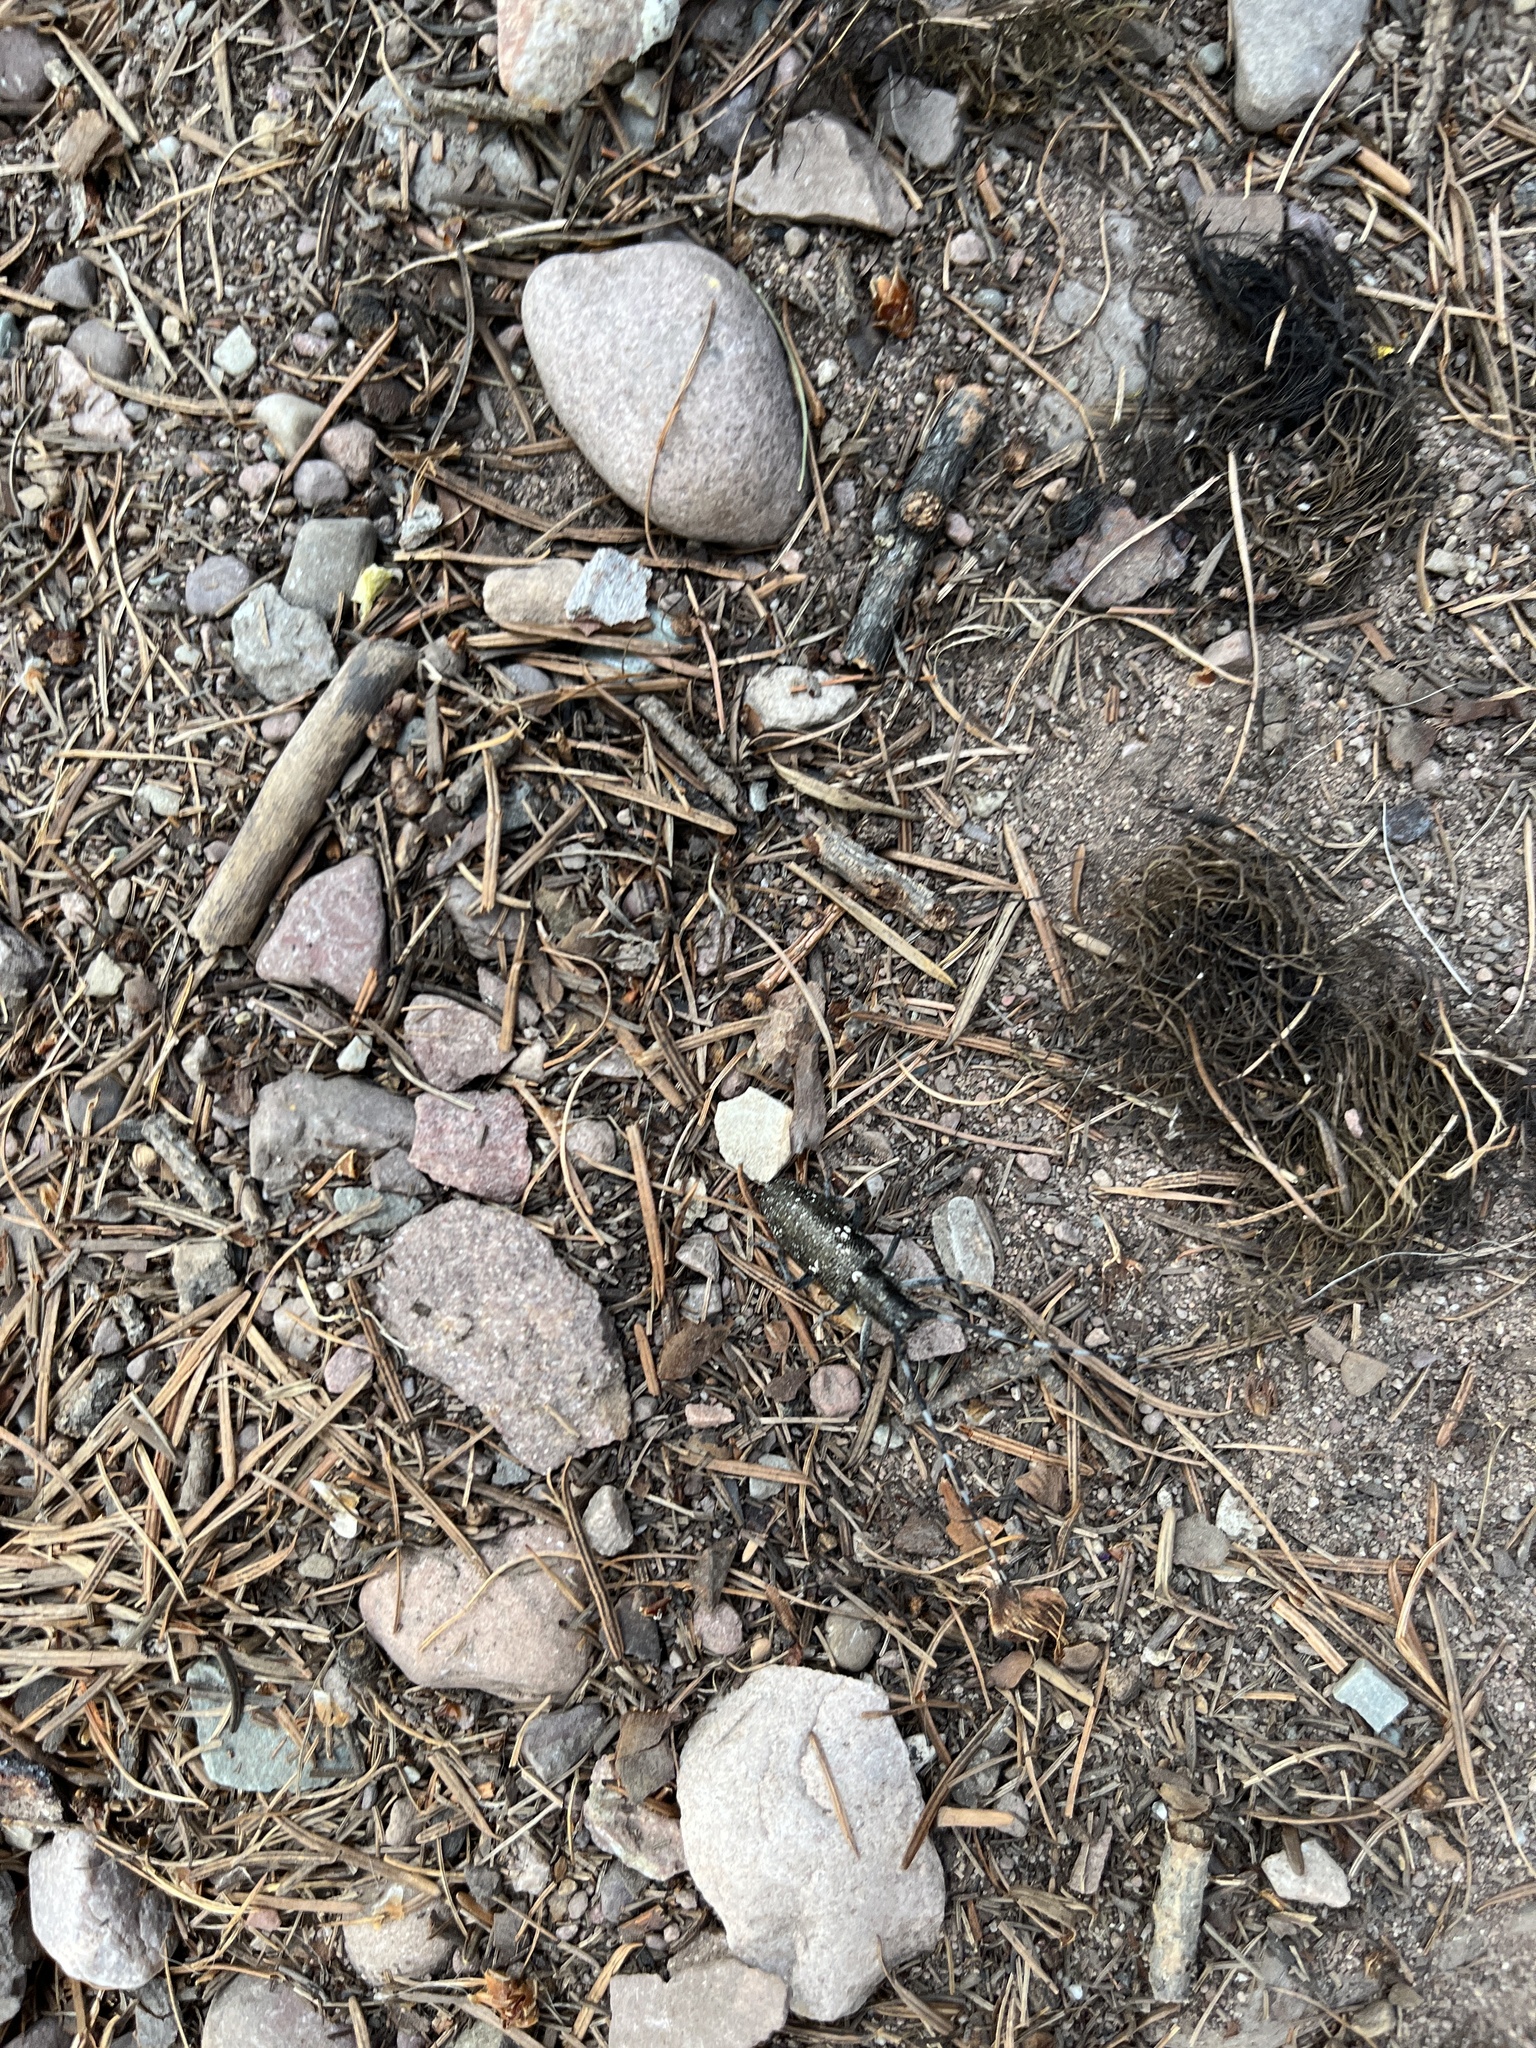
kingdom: Animalia
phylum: Arthropoda
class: Insecta
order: Coleoptera
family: Cerambycidae
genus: Monochamus
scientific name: Monochamus scutellatus
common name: White-spotted sawyer beetle
